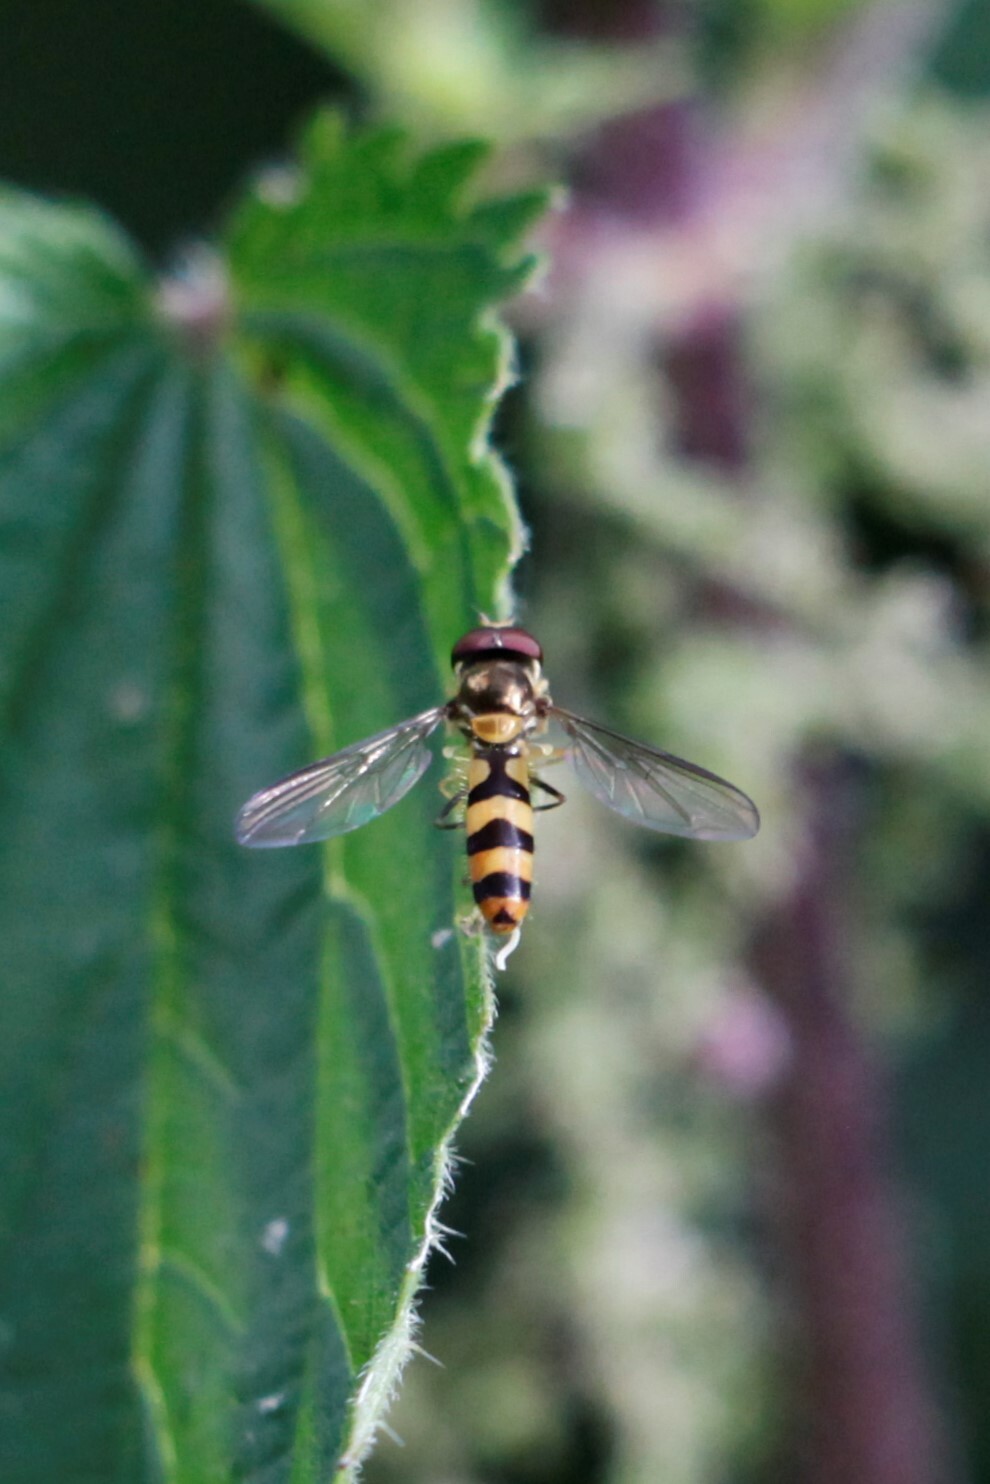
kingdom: Animalia
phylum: Arthropoda
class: Insecta
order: Diptera
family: Syrphidae
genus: Meliscaeva
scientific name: Meliscaeva cinctella
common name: American thintail fly
